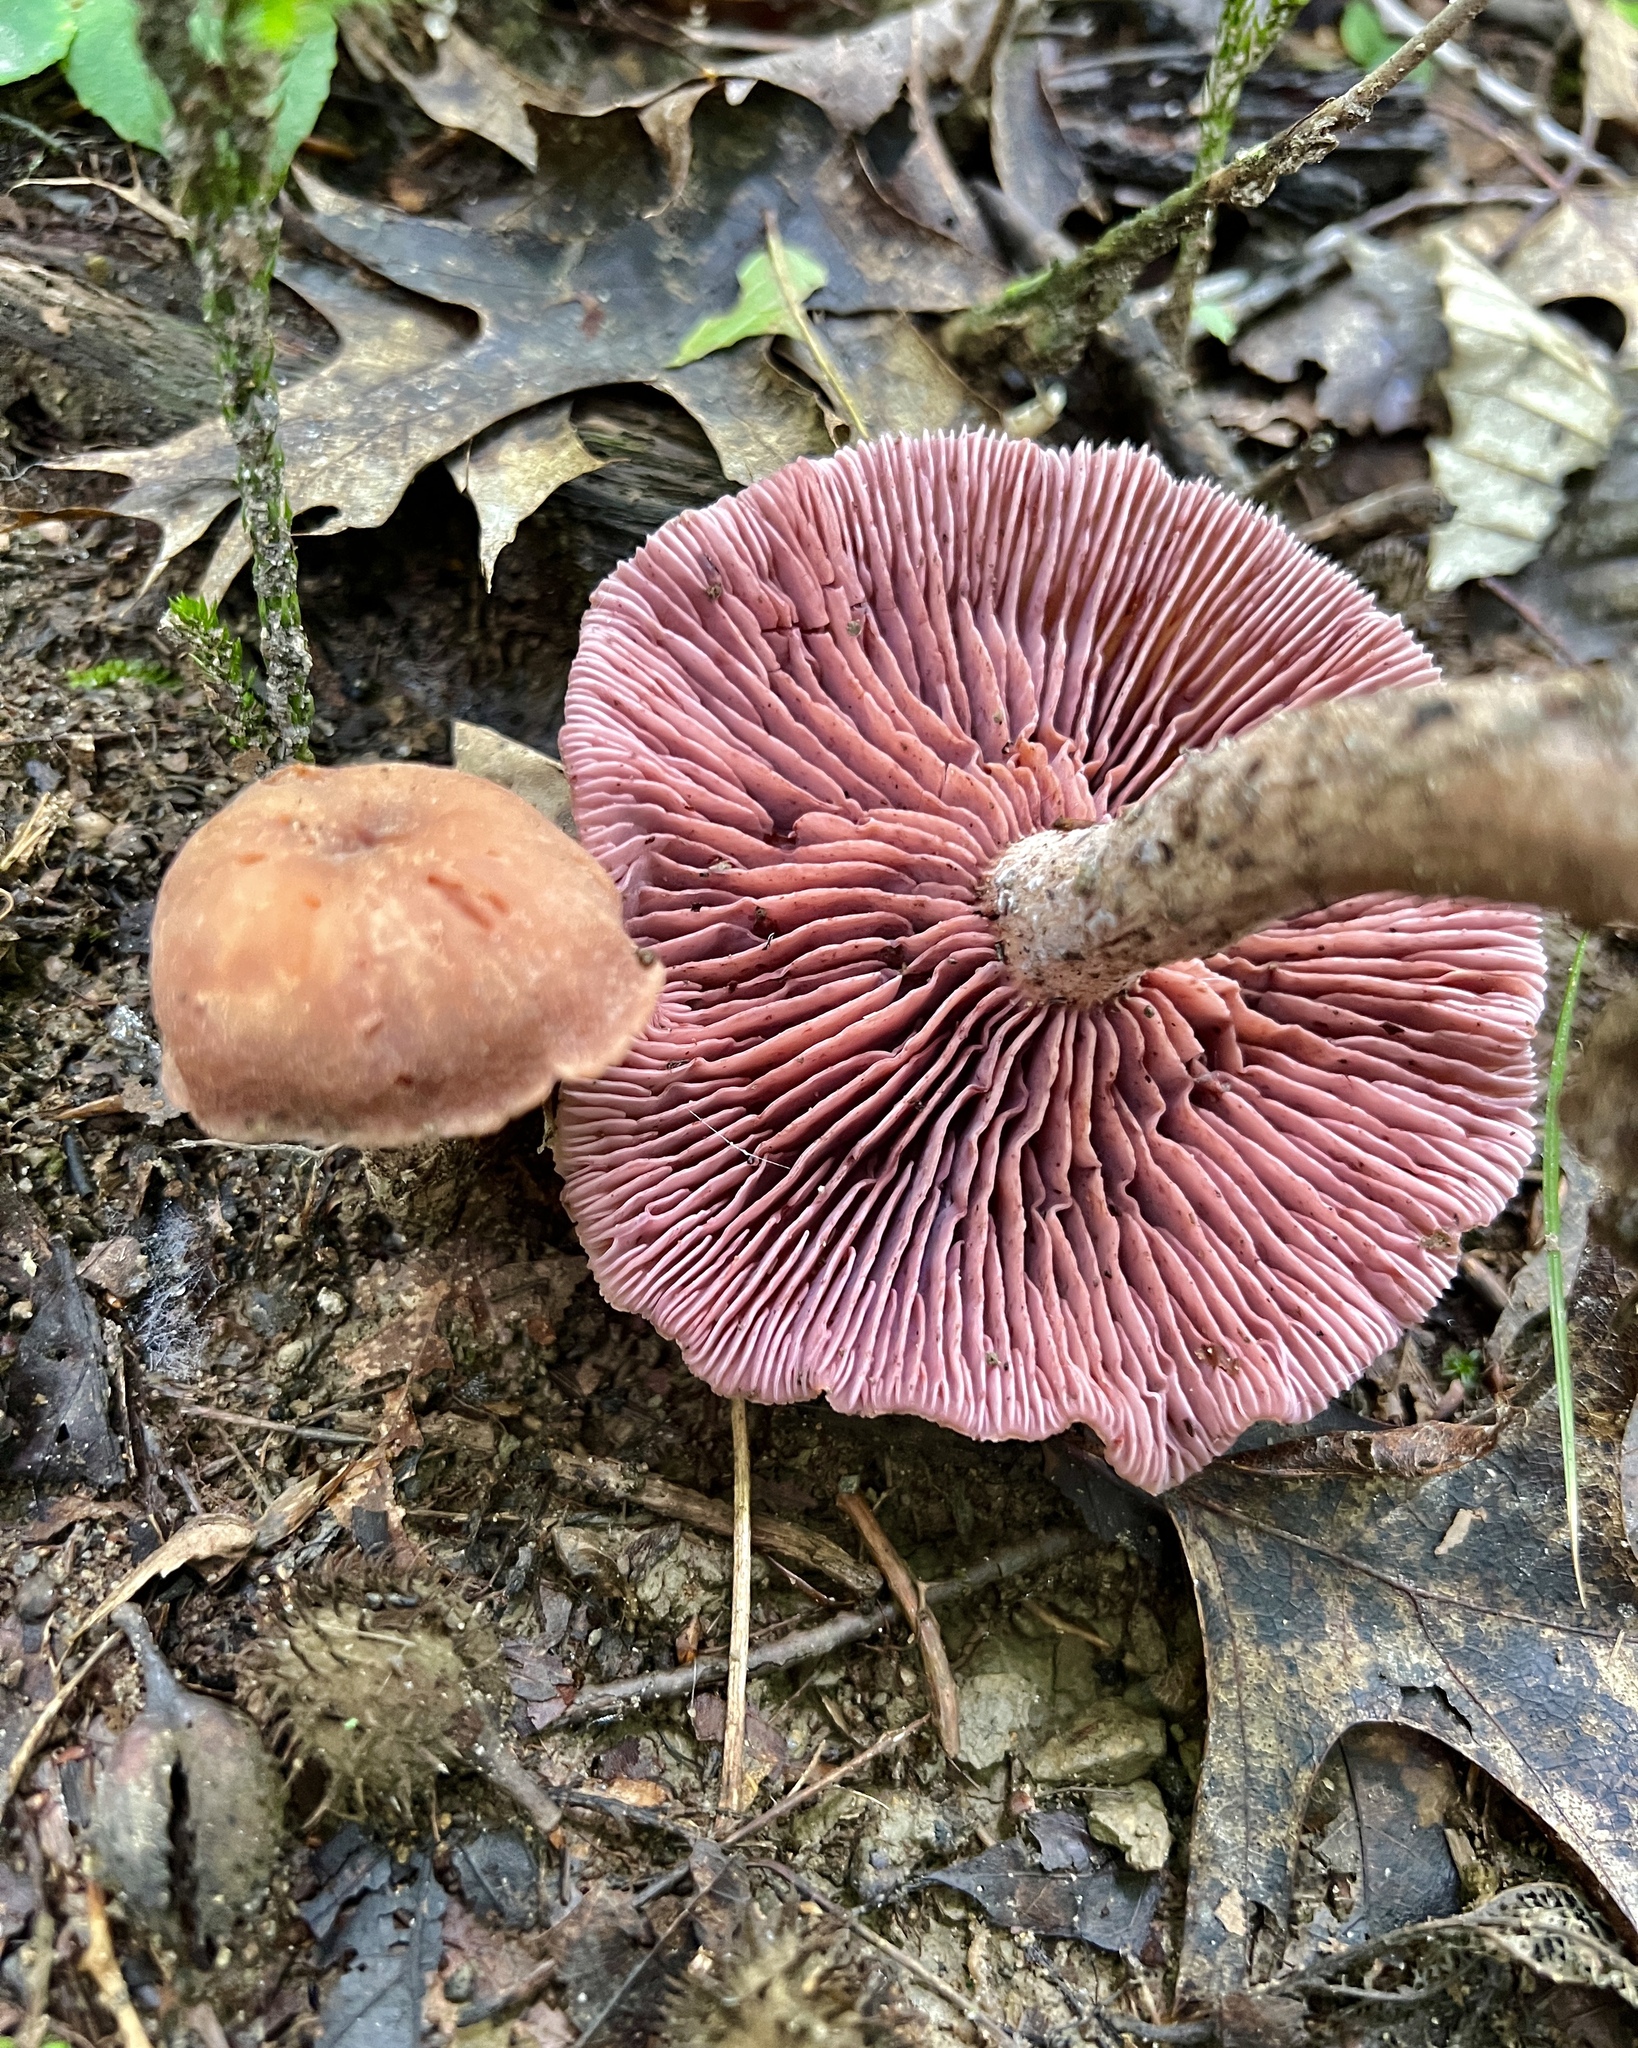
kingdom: Fungi
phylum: Basidiomycota
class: Agaricomycetes
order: Agaricales
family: Hydnangiaceae
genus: Laccaria
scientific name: Laccaria ochropurpurea
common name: Purple laccaria
